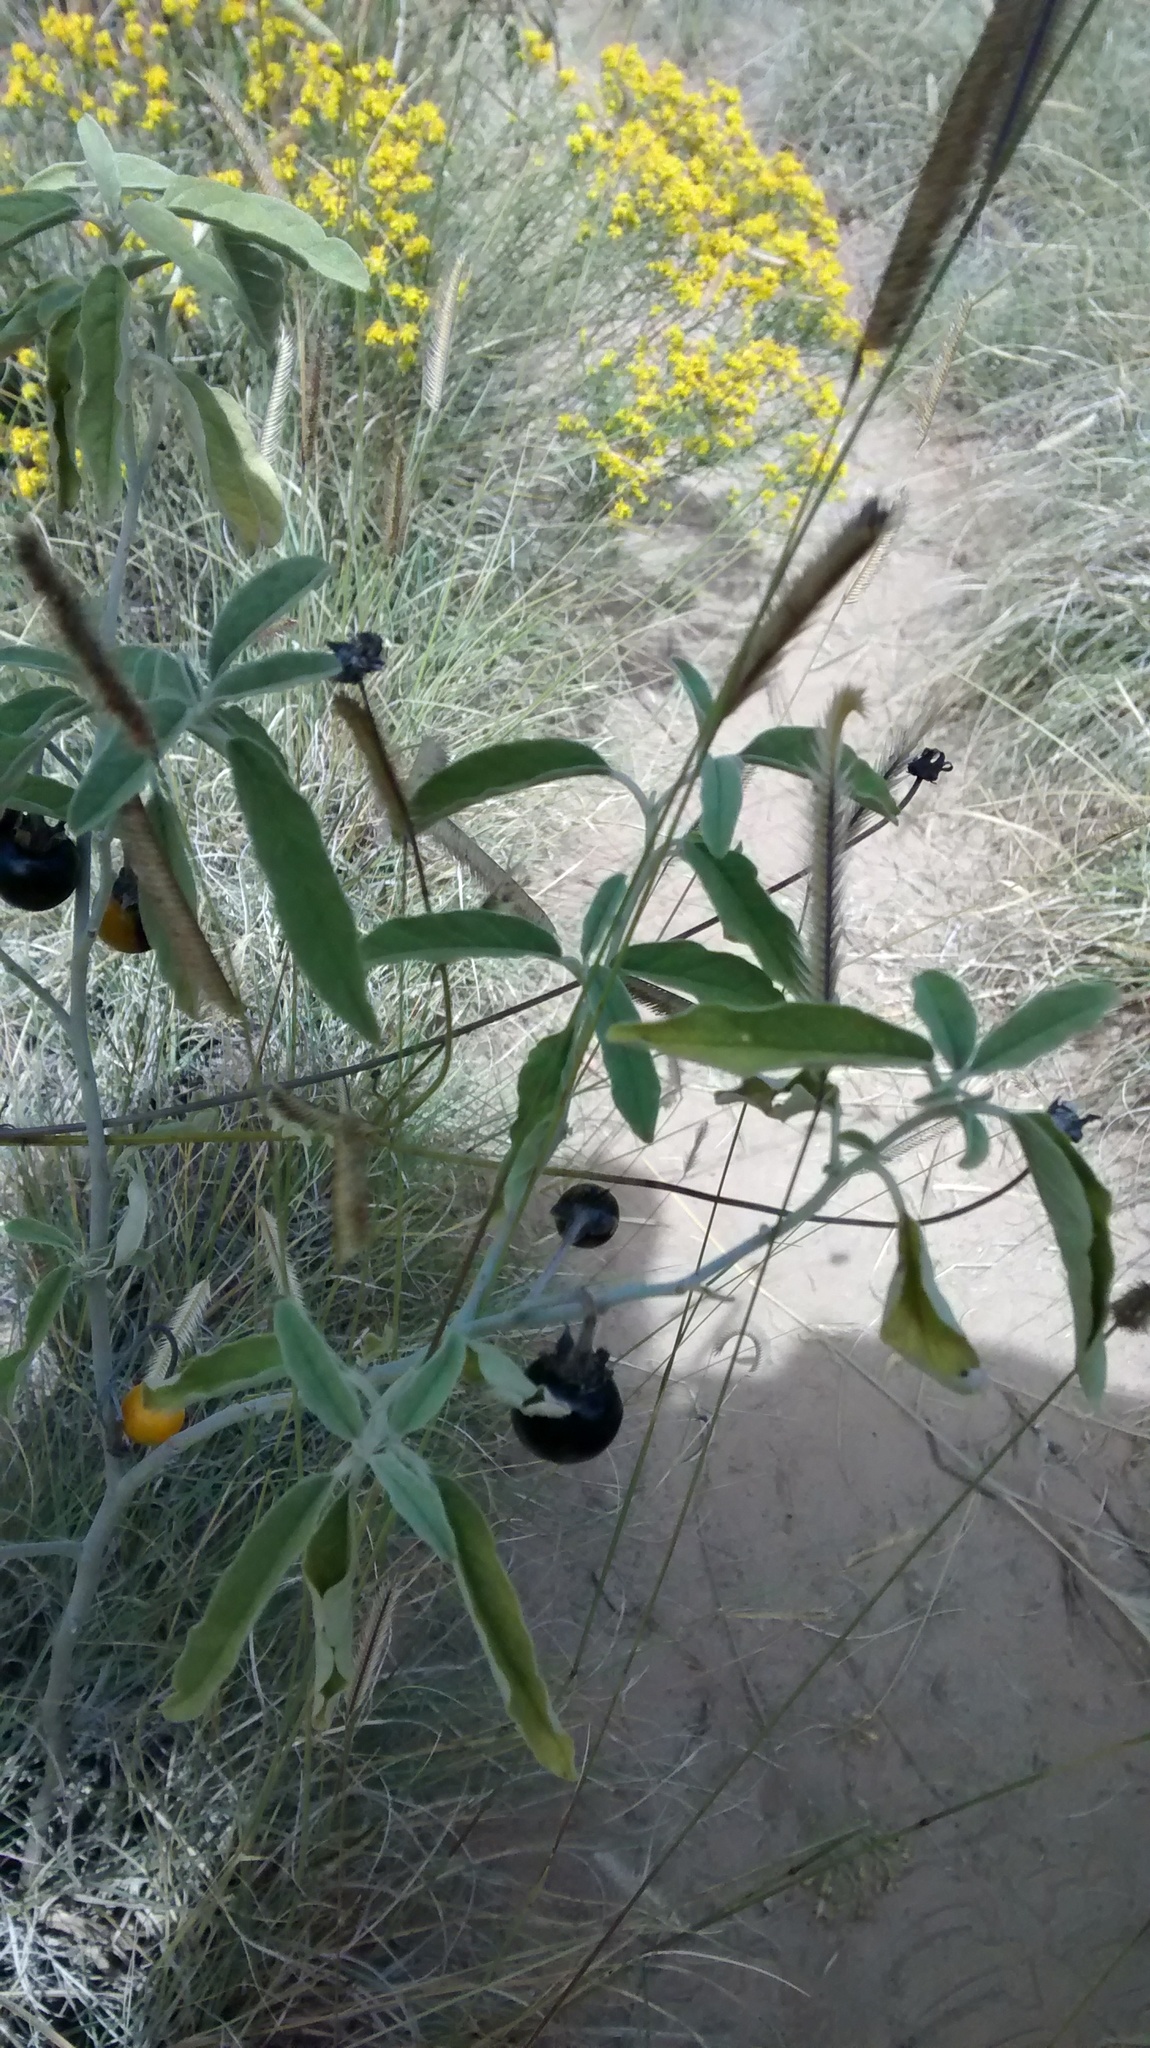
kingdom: Plantae
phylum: Tracheophyta
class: Magnoliopsida
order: Solanales
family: Solanaceae
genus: Solanum
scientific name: Solanum elaeagnifolium
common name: Silverleaf nightshade
